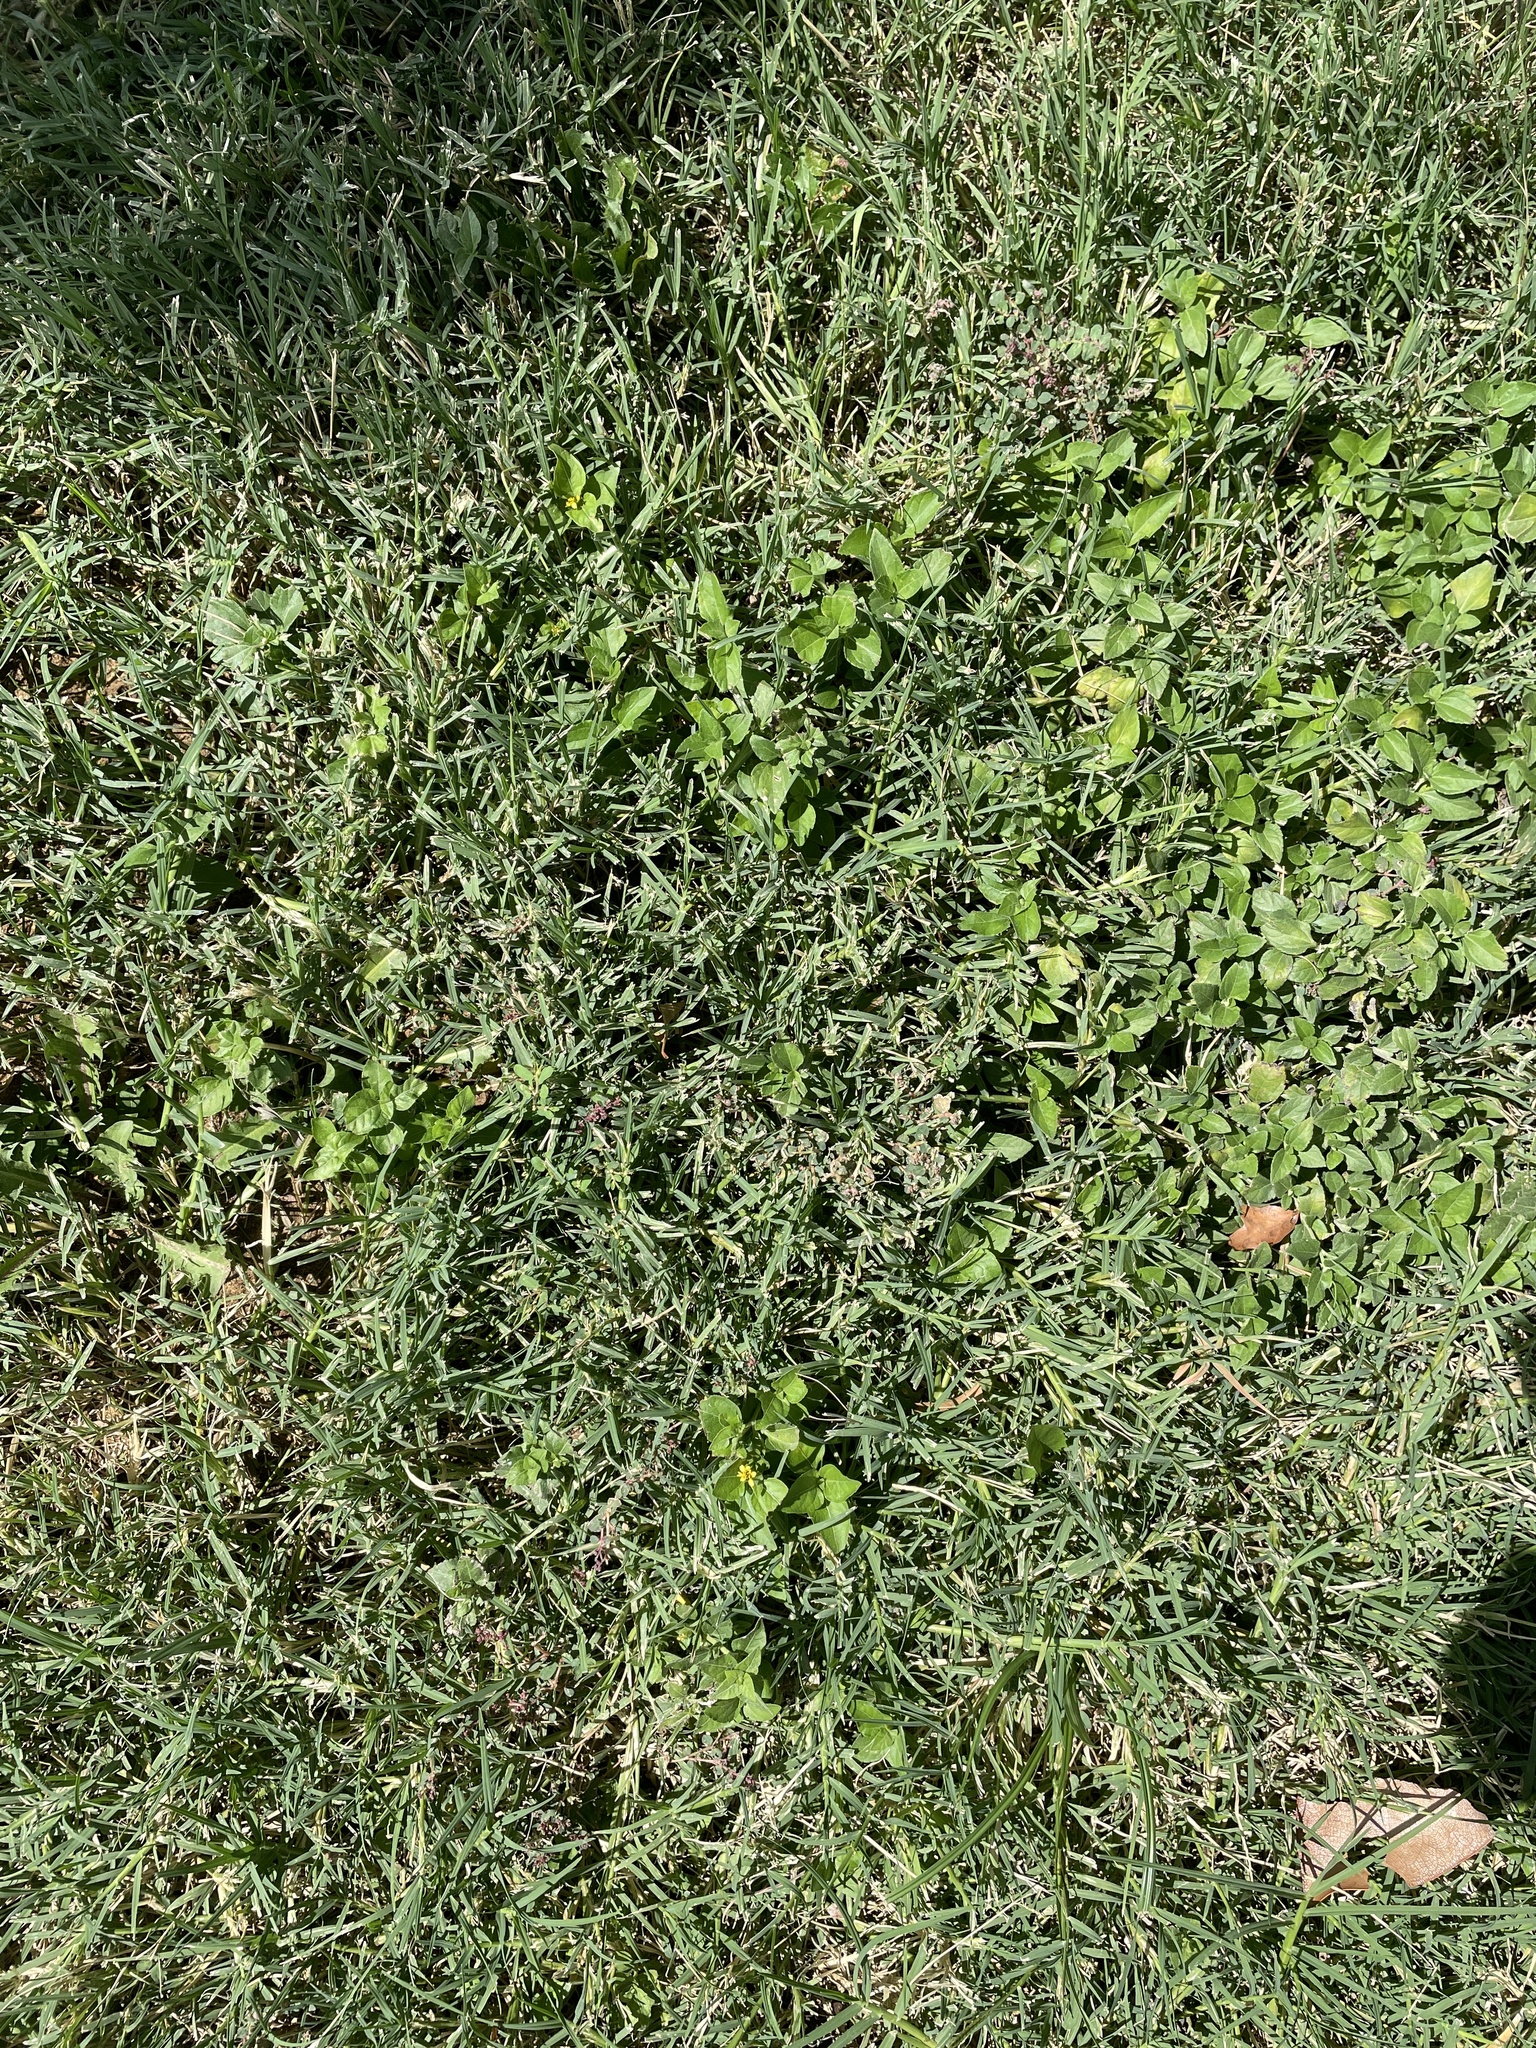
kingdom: Plantae
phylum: Tracheophyta
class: Magnoliopsida
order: Asterales
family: Asteraceae
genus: Calyptocarpus
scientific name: Calyptocarpus vialis
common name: Straggler daisy
